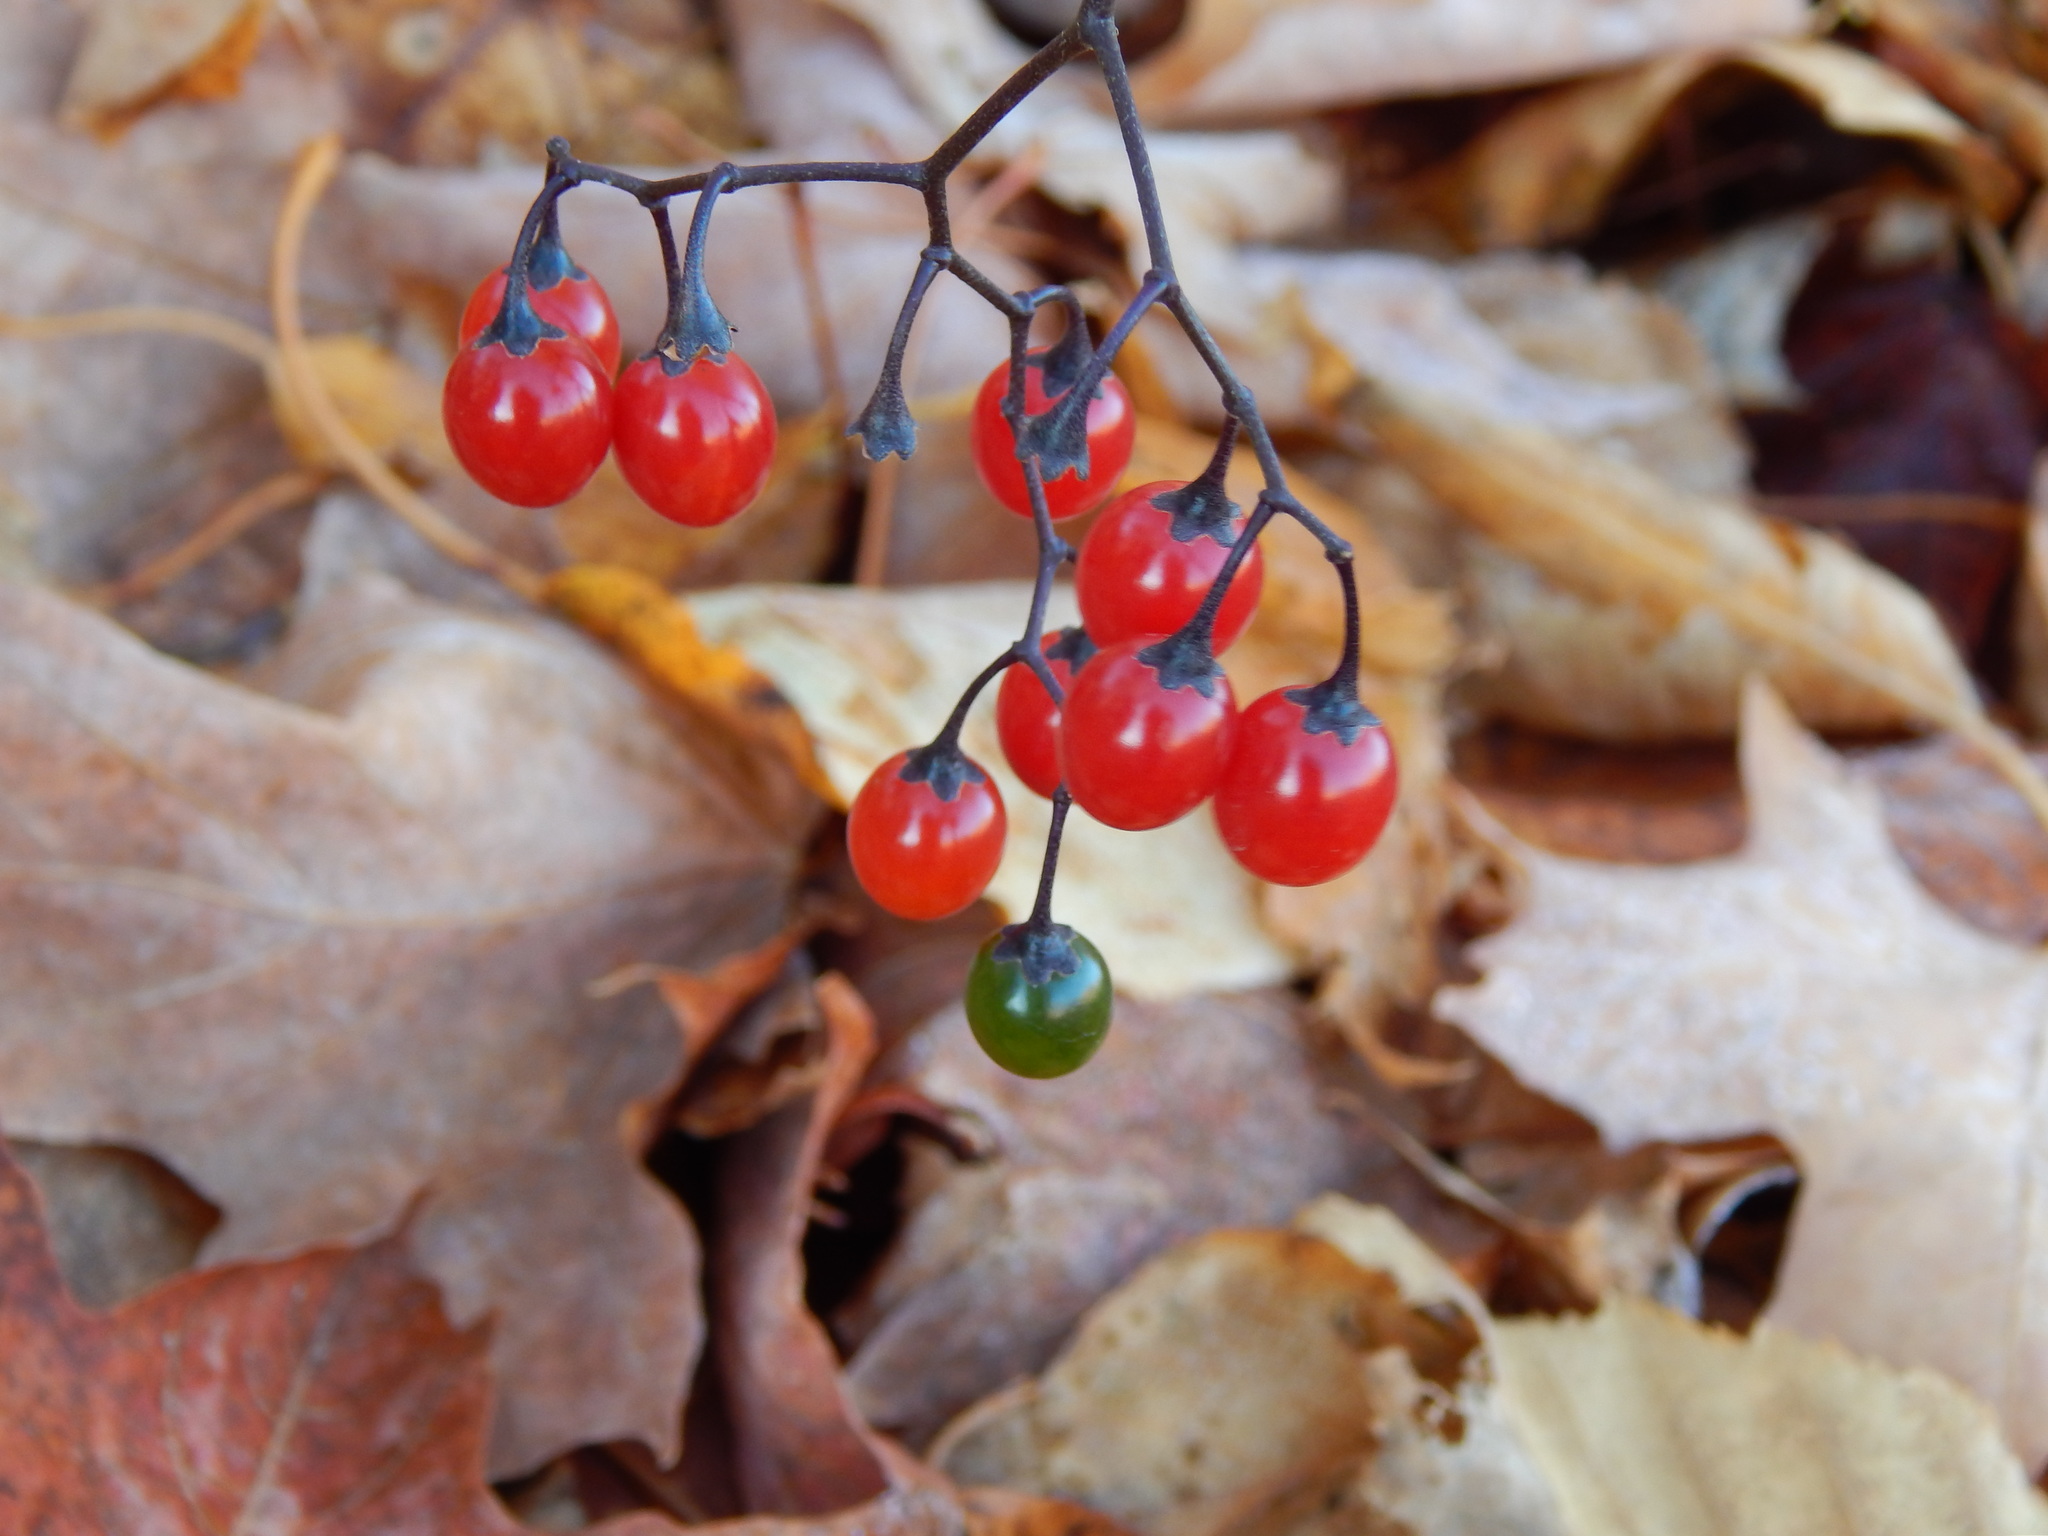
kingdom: Plantae
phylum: Tracheophyta
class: Magnoliopsida
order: Solanales
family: Solanaceae
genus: Solanum
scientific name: Solanum dulcamara
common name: Climbing nightshade
